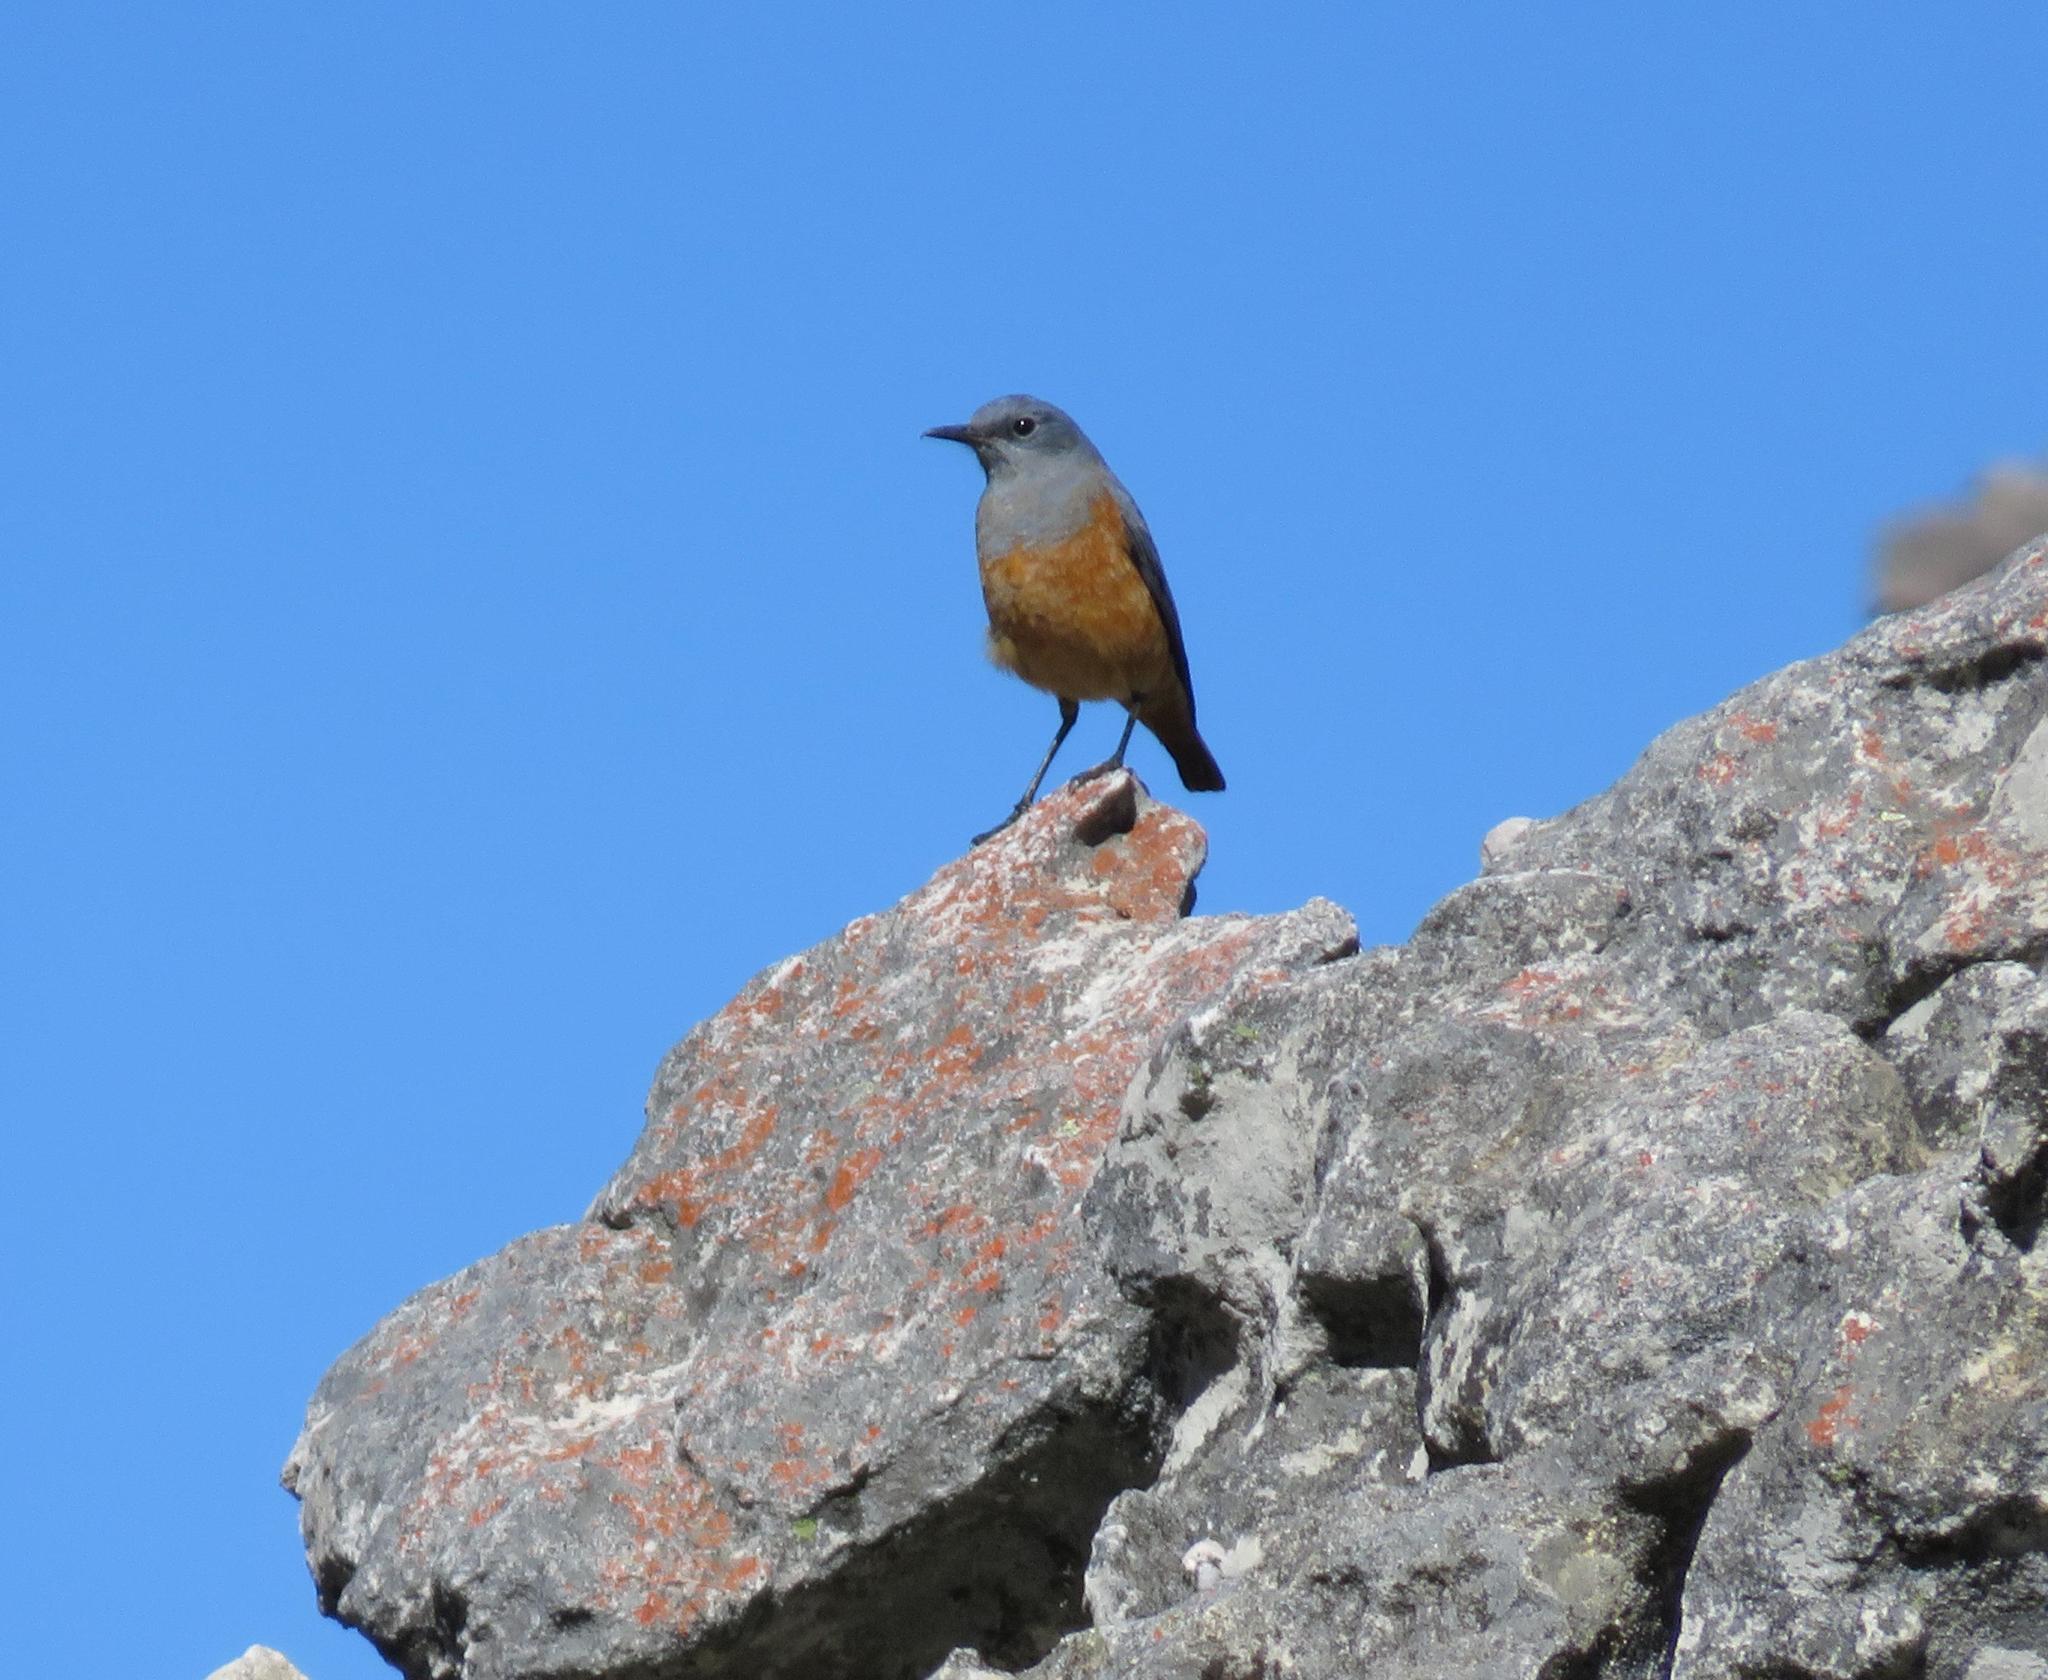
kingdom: Animalia
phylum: Chordata
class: Aves
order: Passeriformes
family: Muscicapidae
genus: Monticola
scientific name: Monticola explorator
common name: Sentinel rock thrush
